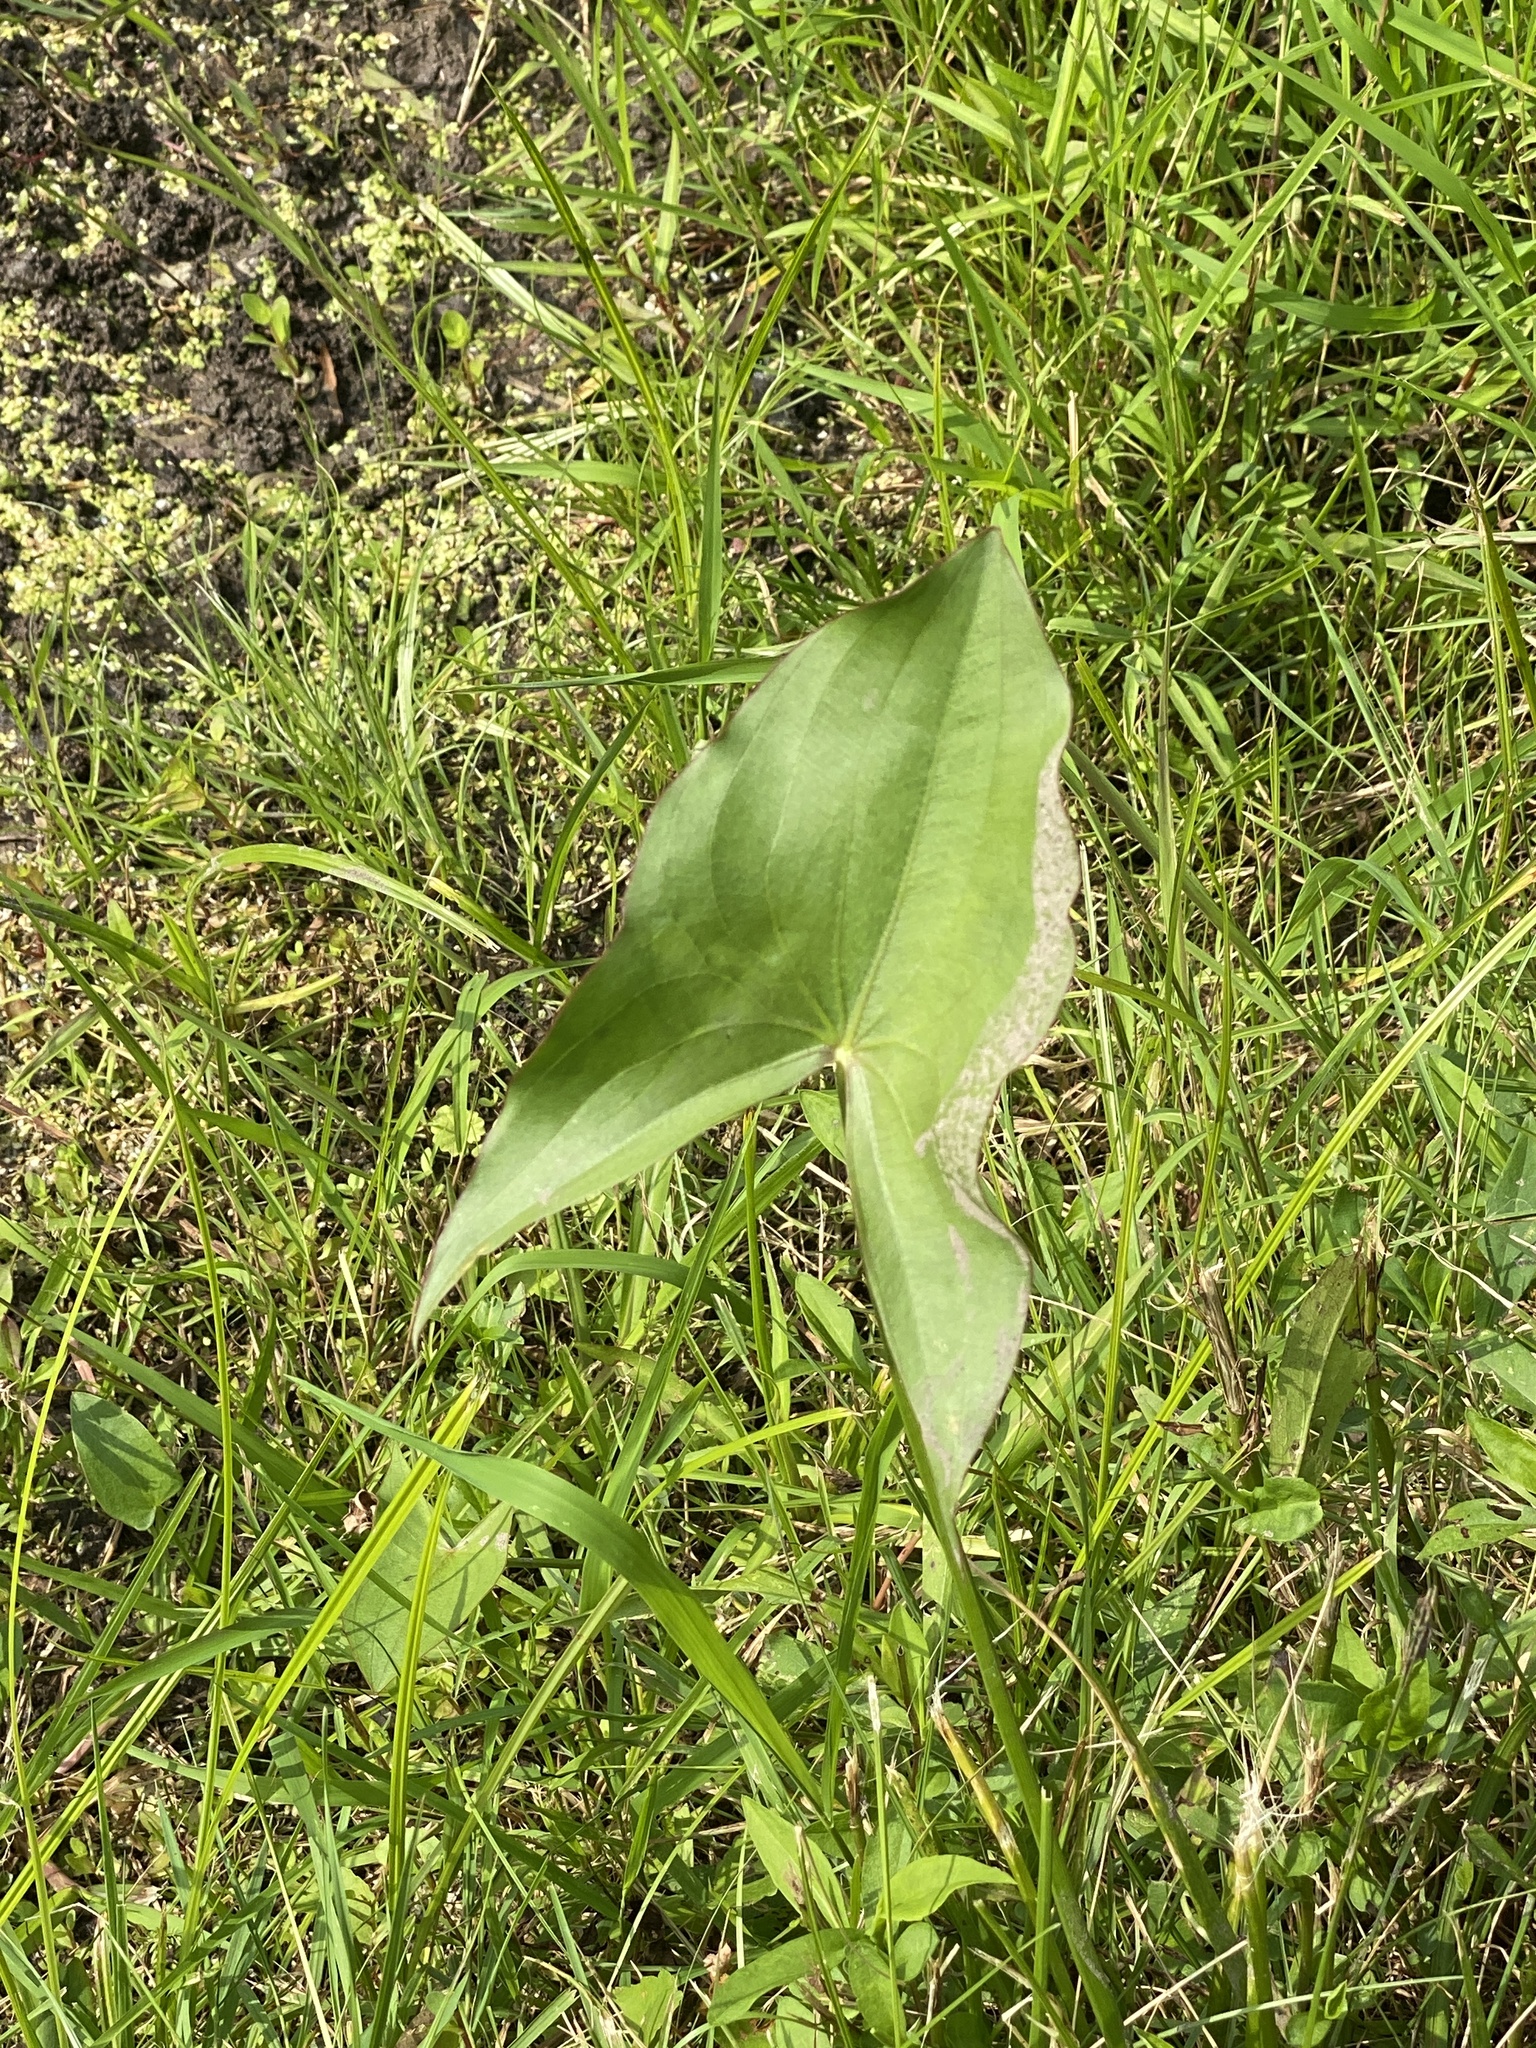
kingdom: Plantae
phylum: Tracheophyta
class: Liliopsida
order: Alismatales
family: Alismataceae
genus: Sagittaria
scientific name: Sagittaria latifolia
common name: Duck-potato
